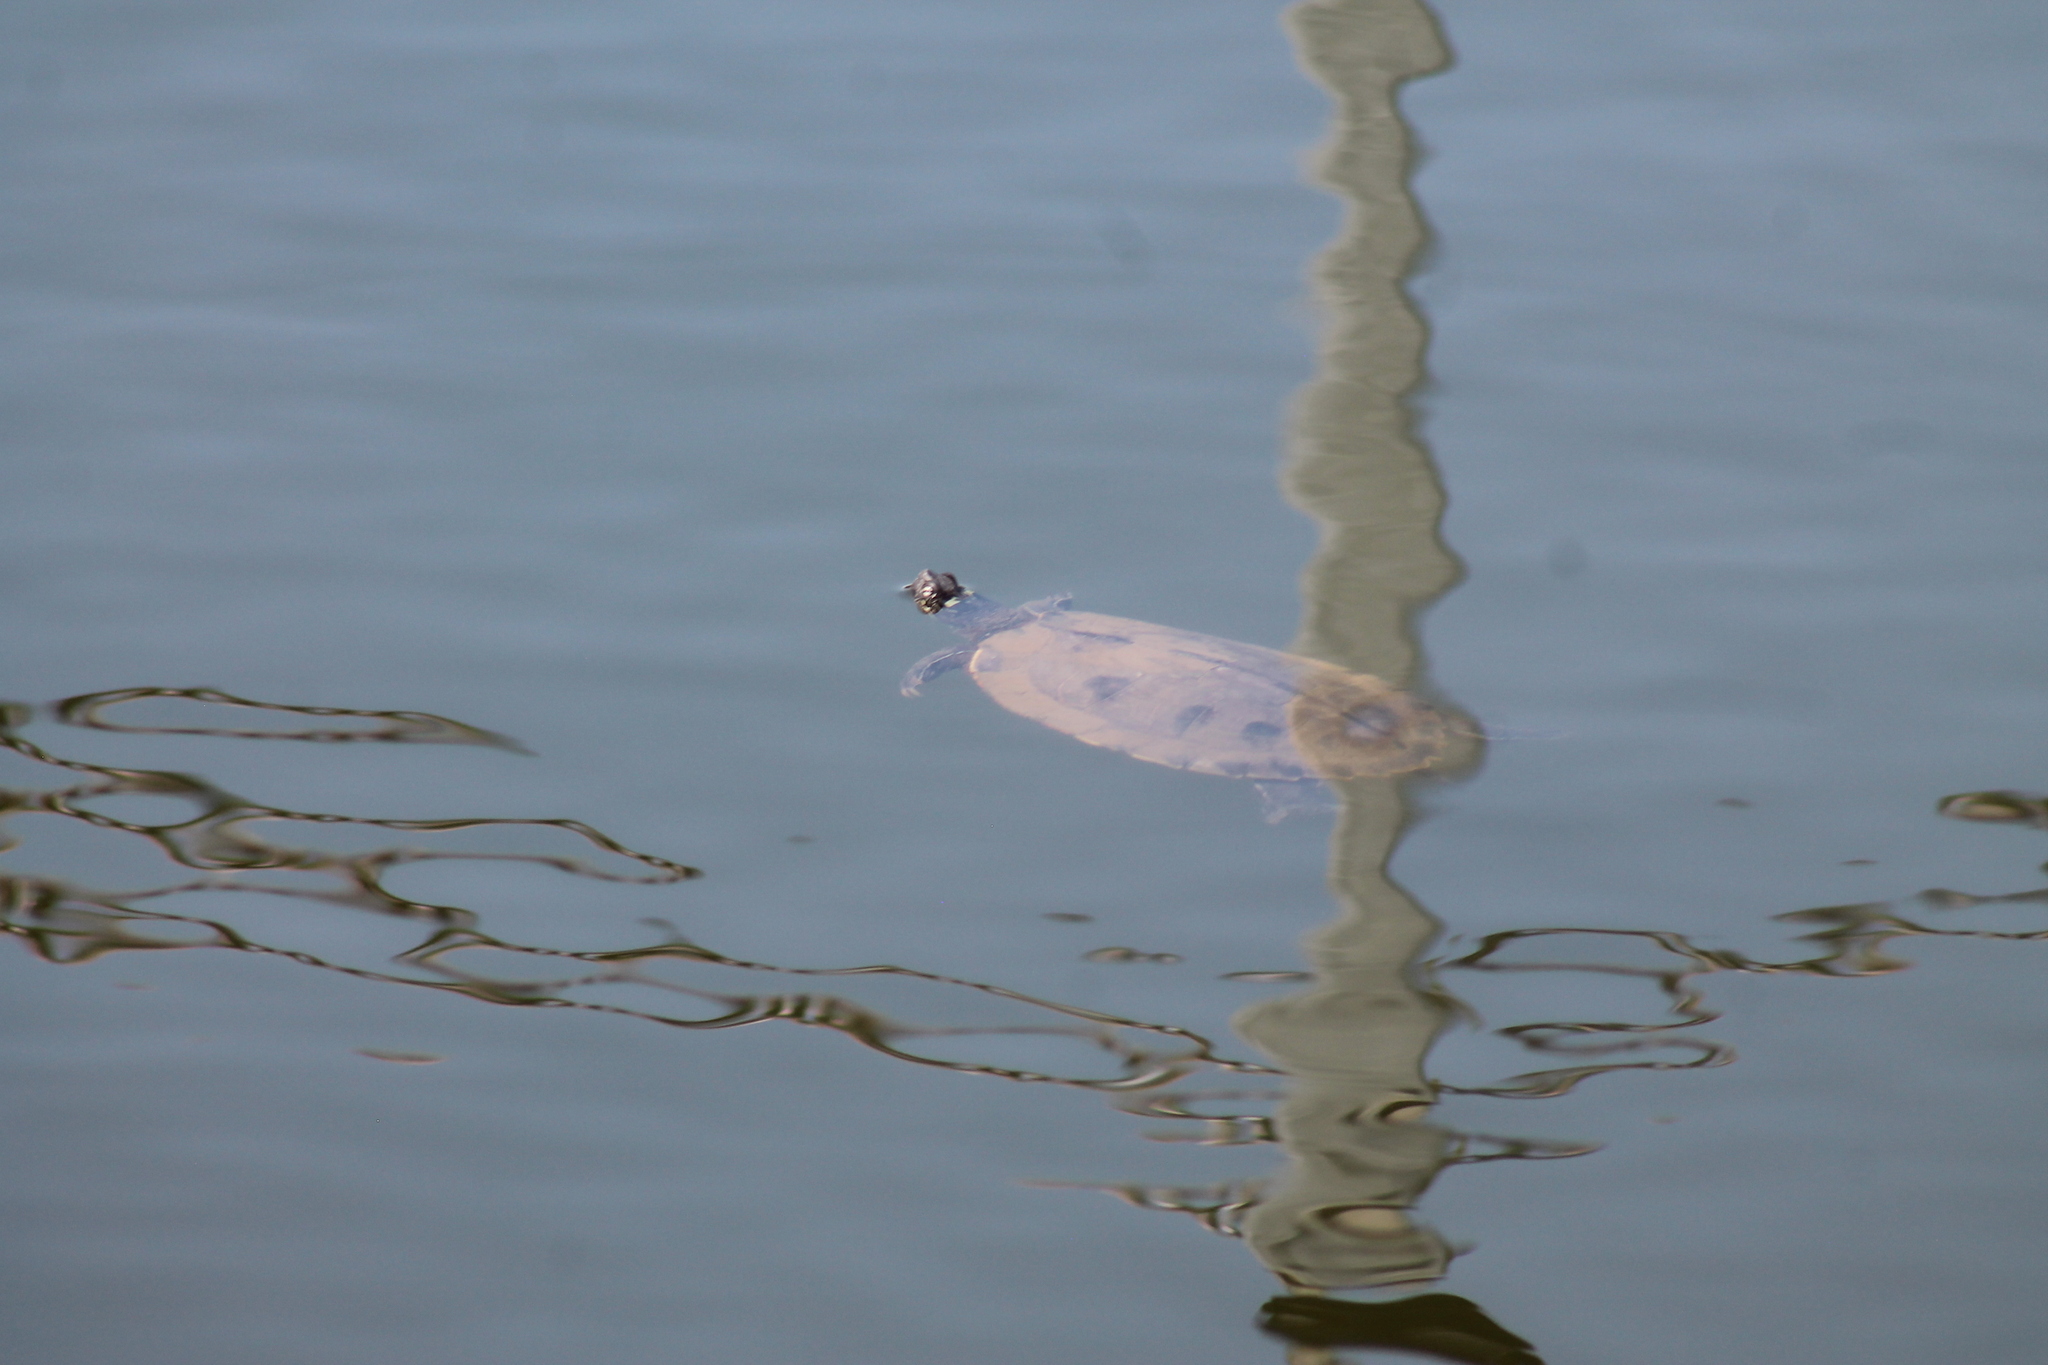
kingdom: Animalia
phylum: Chordata
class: Testudines
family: Emydidae
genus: Graptemys
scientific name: Graptemys ouachitensis
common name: Ouachita map turtle
